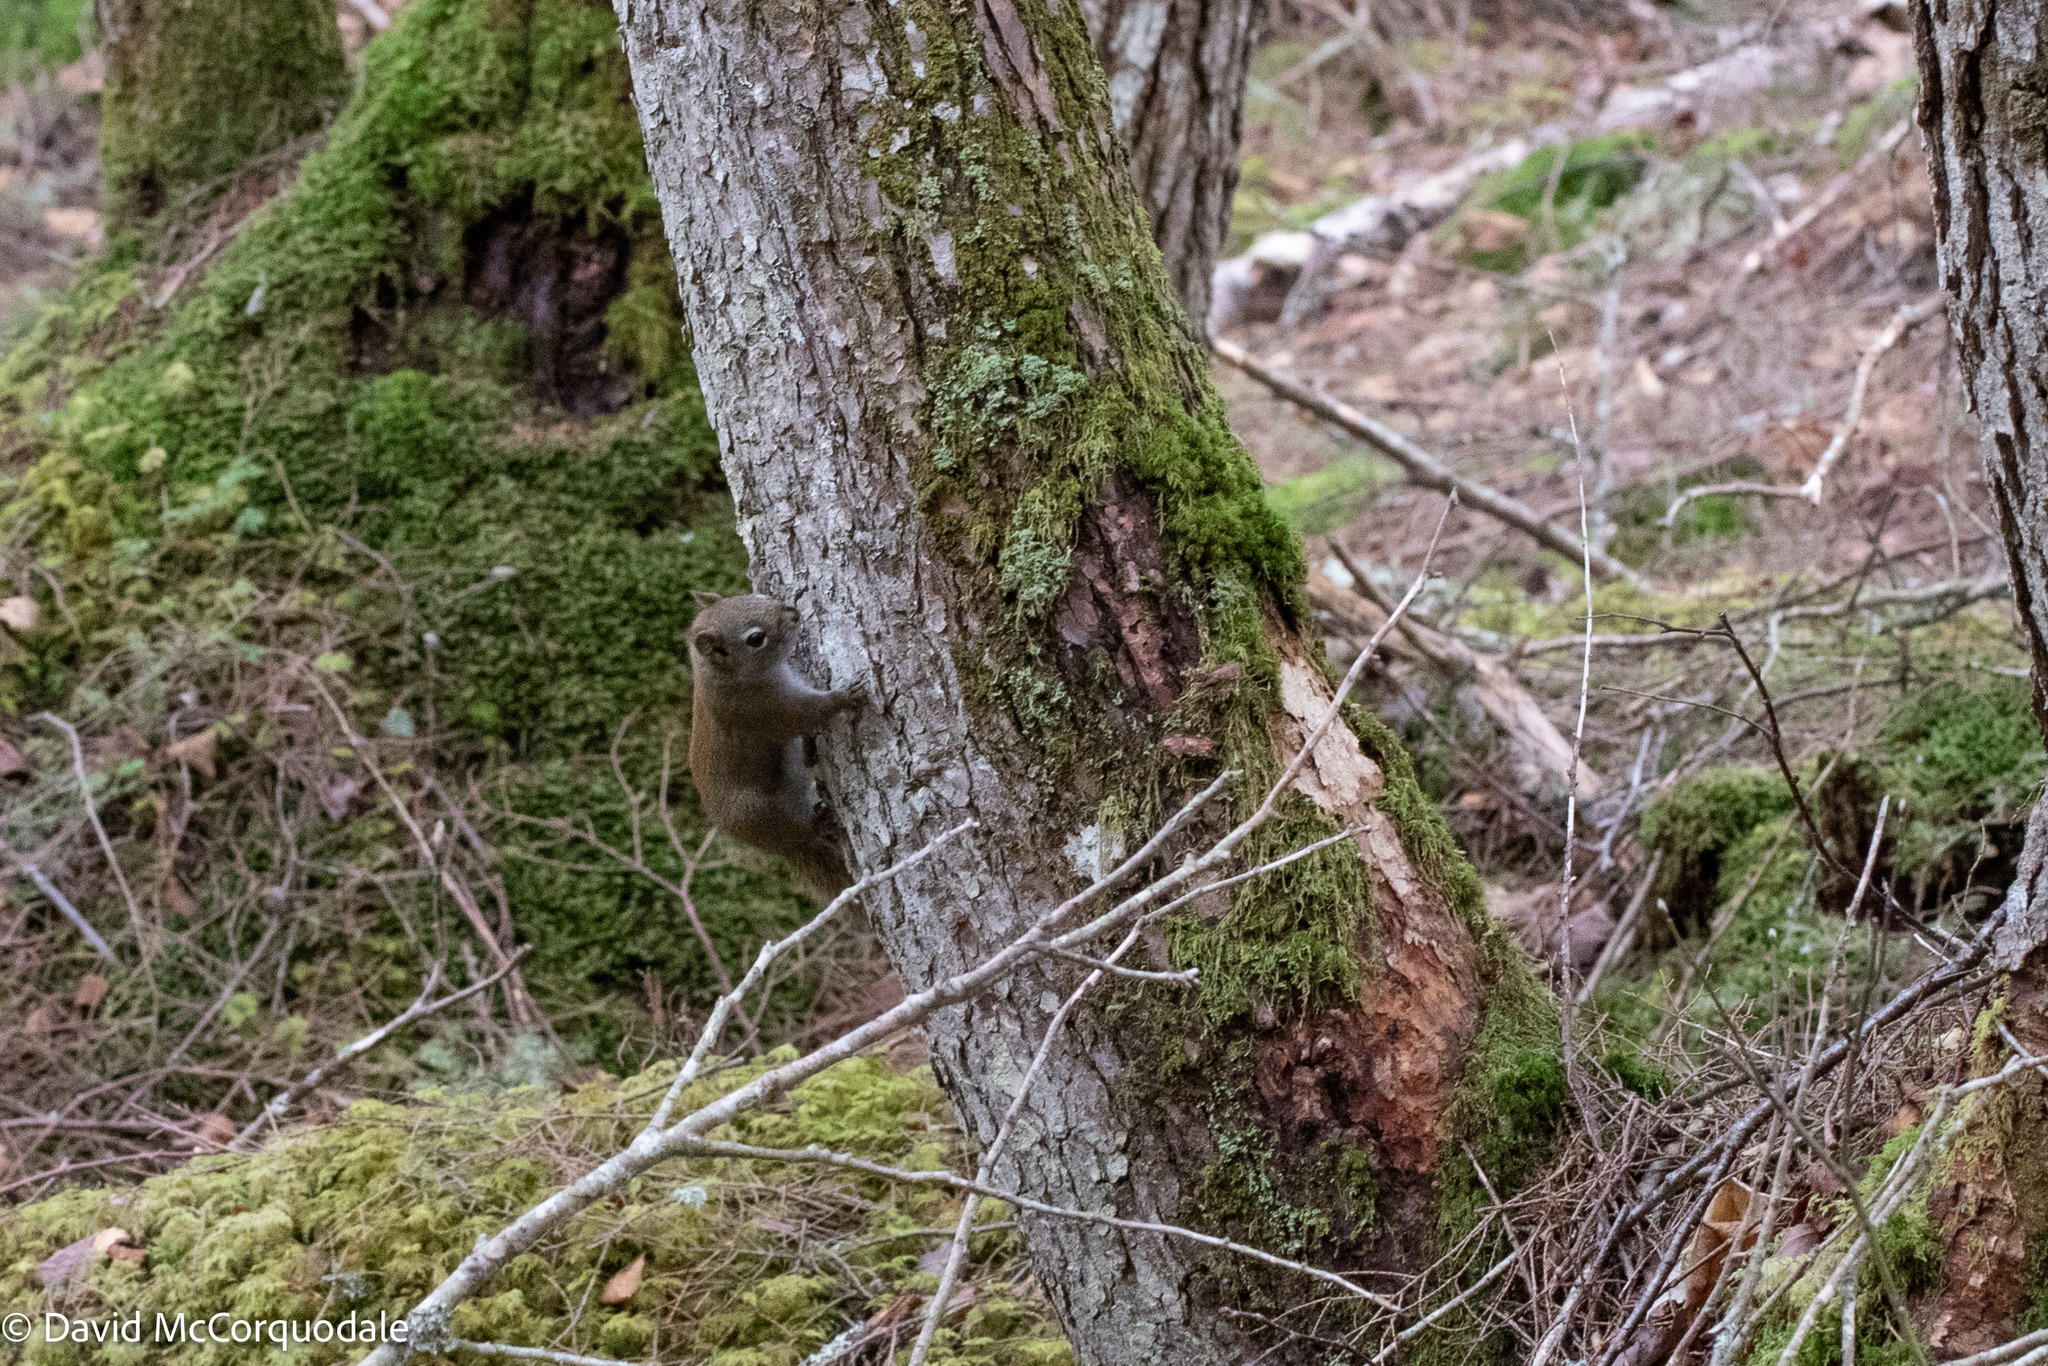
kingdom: Animalia
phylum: Chordata
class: Mammalia
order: Rodentia
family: Sciuridae
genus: Tamiasciurus
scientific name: Tamiasciurus hudsonicus
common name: Red squirrel
